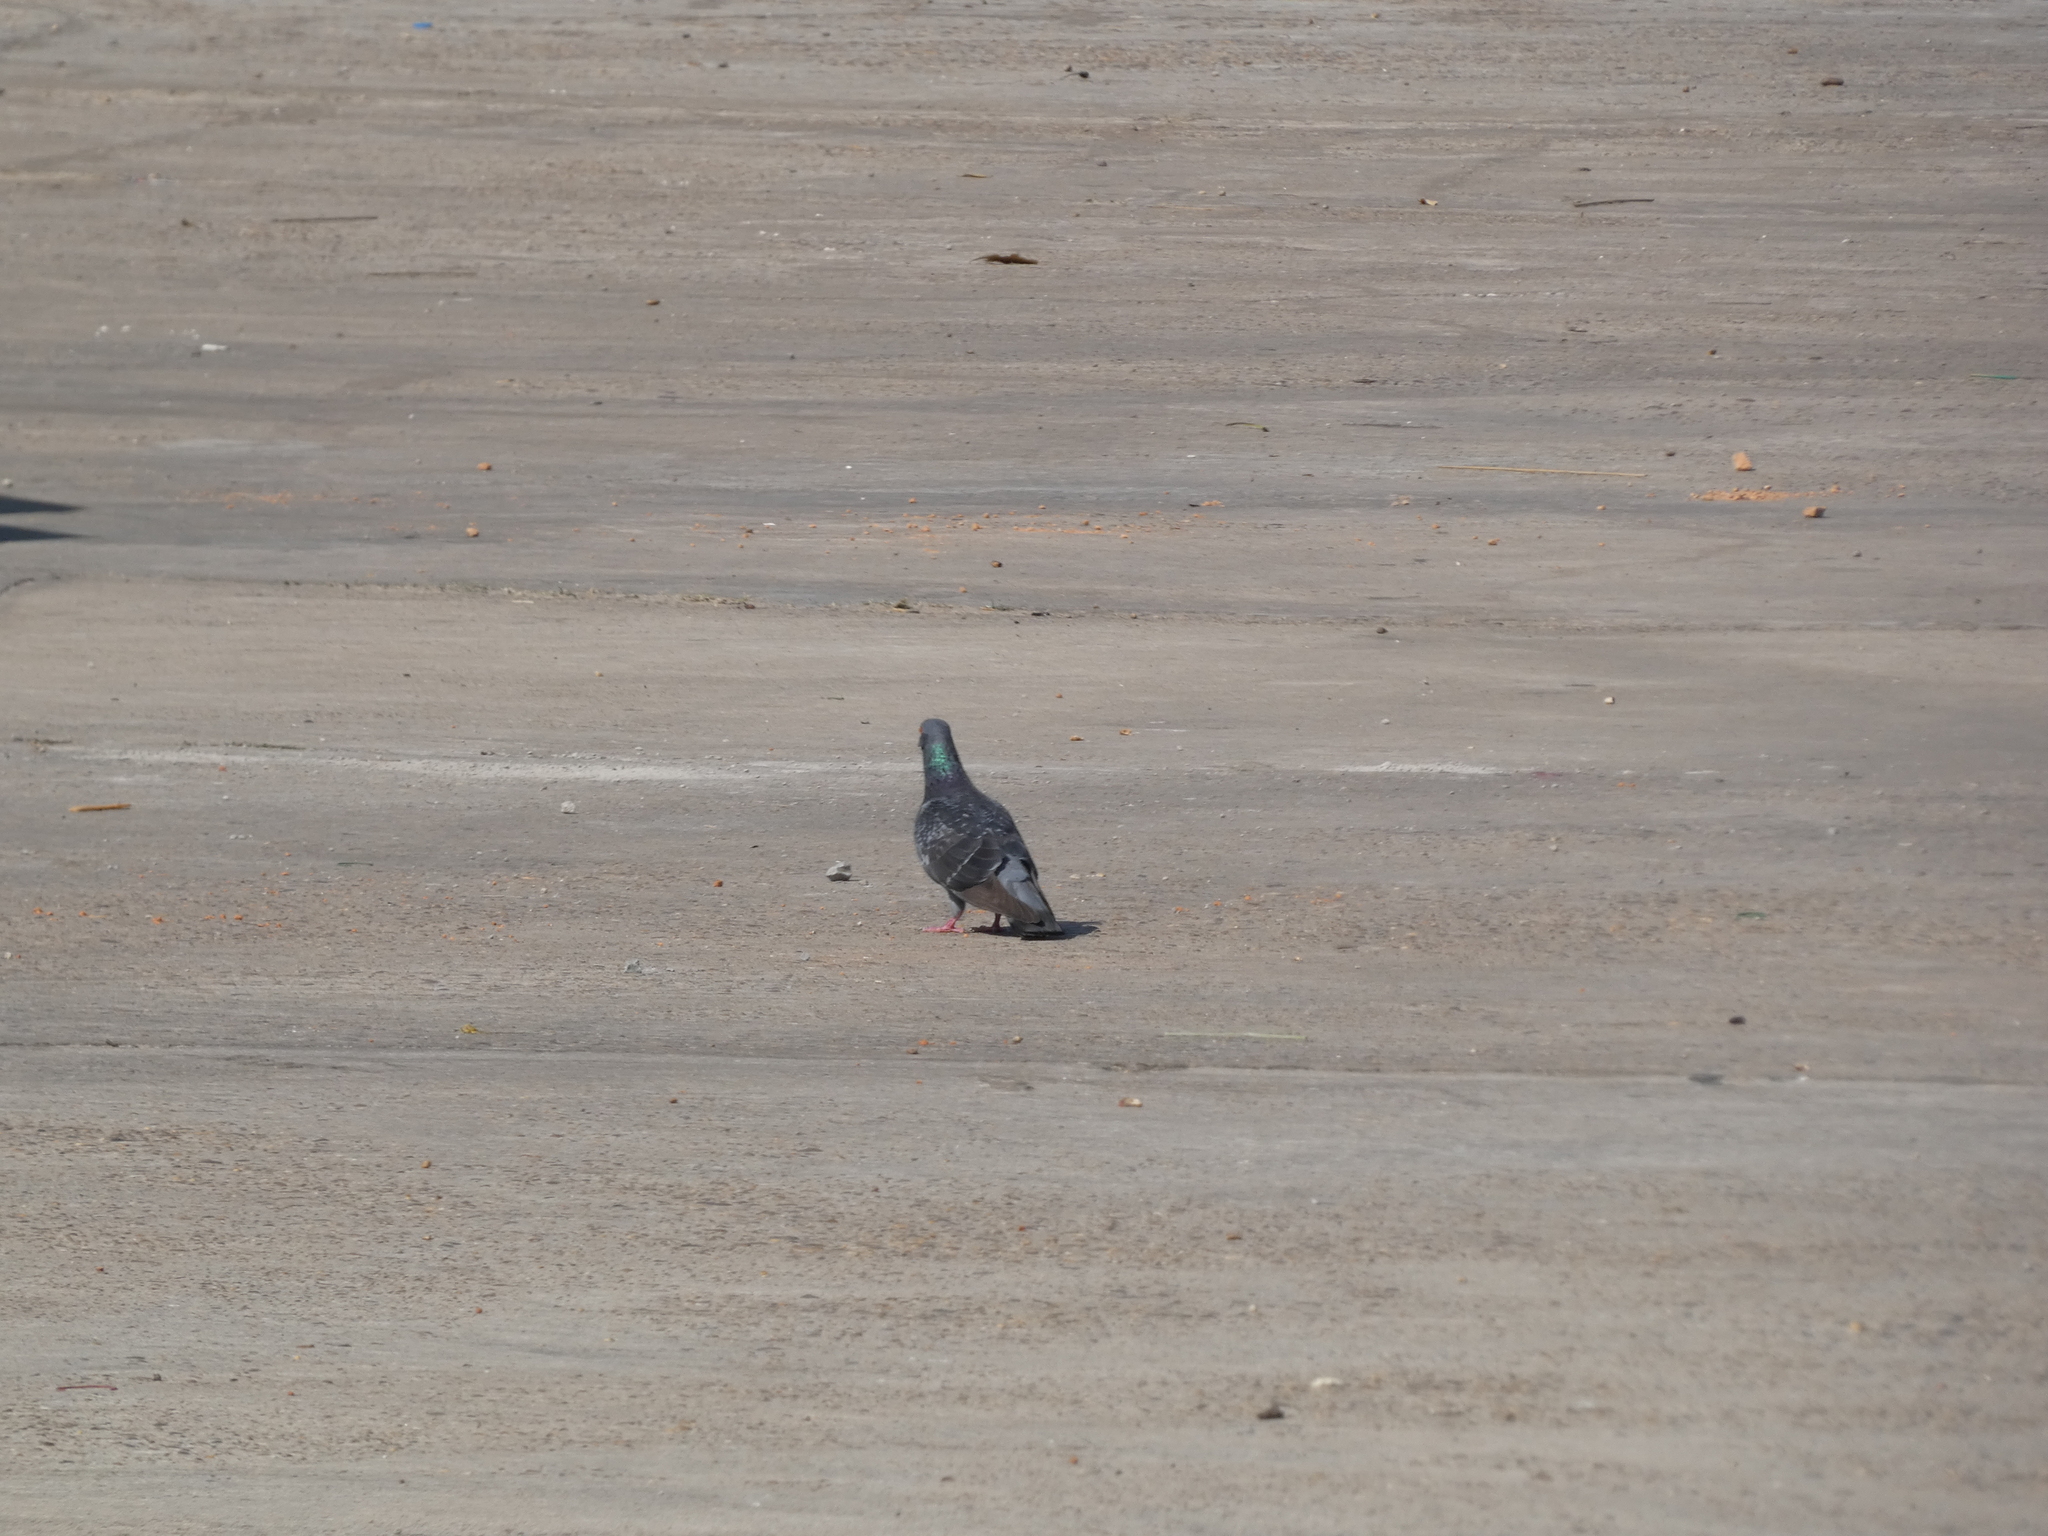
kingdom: Animalia
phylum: Chordata
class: Aves
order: Columbiformes
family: Columbidae
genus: Columba
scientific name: Columba livia
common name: Rock pigeon
